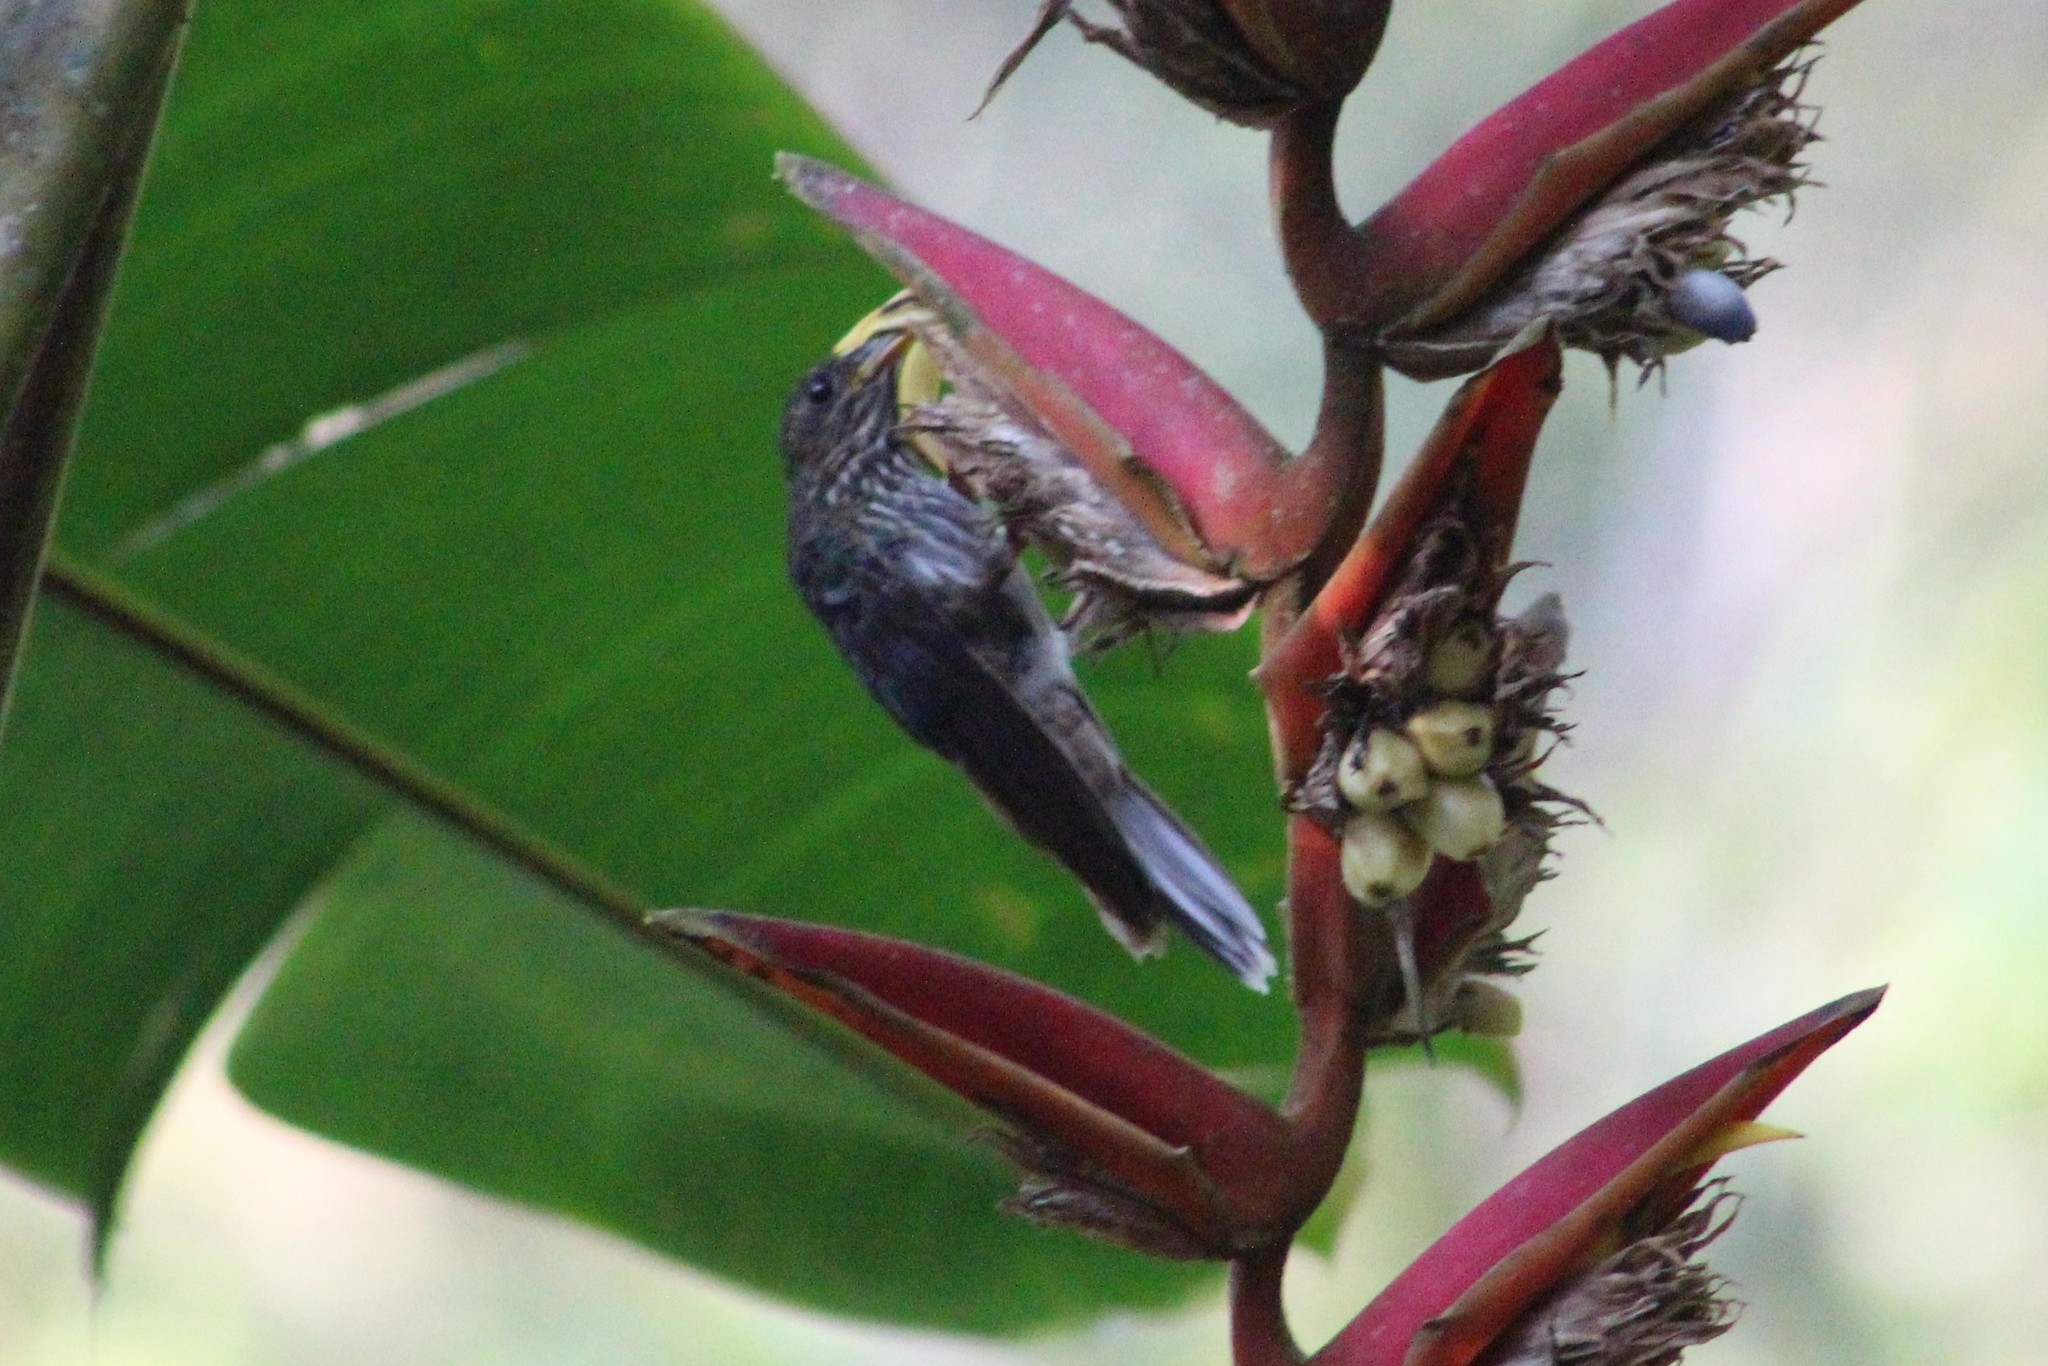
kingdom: Animalia
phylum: Chordata
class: Aves
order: Apodiformes
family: Trochilidae
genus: Eutoxeres
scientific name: Eutoxeres aquila
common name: White-tipped sicklebill
